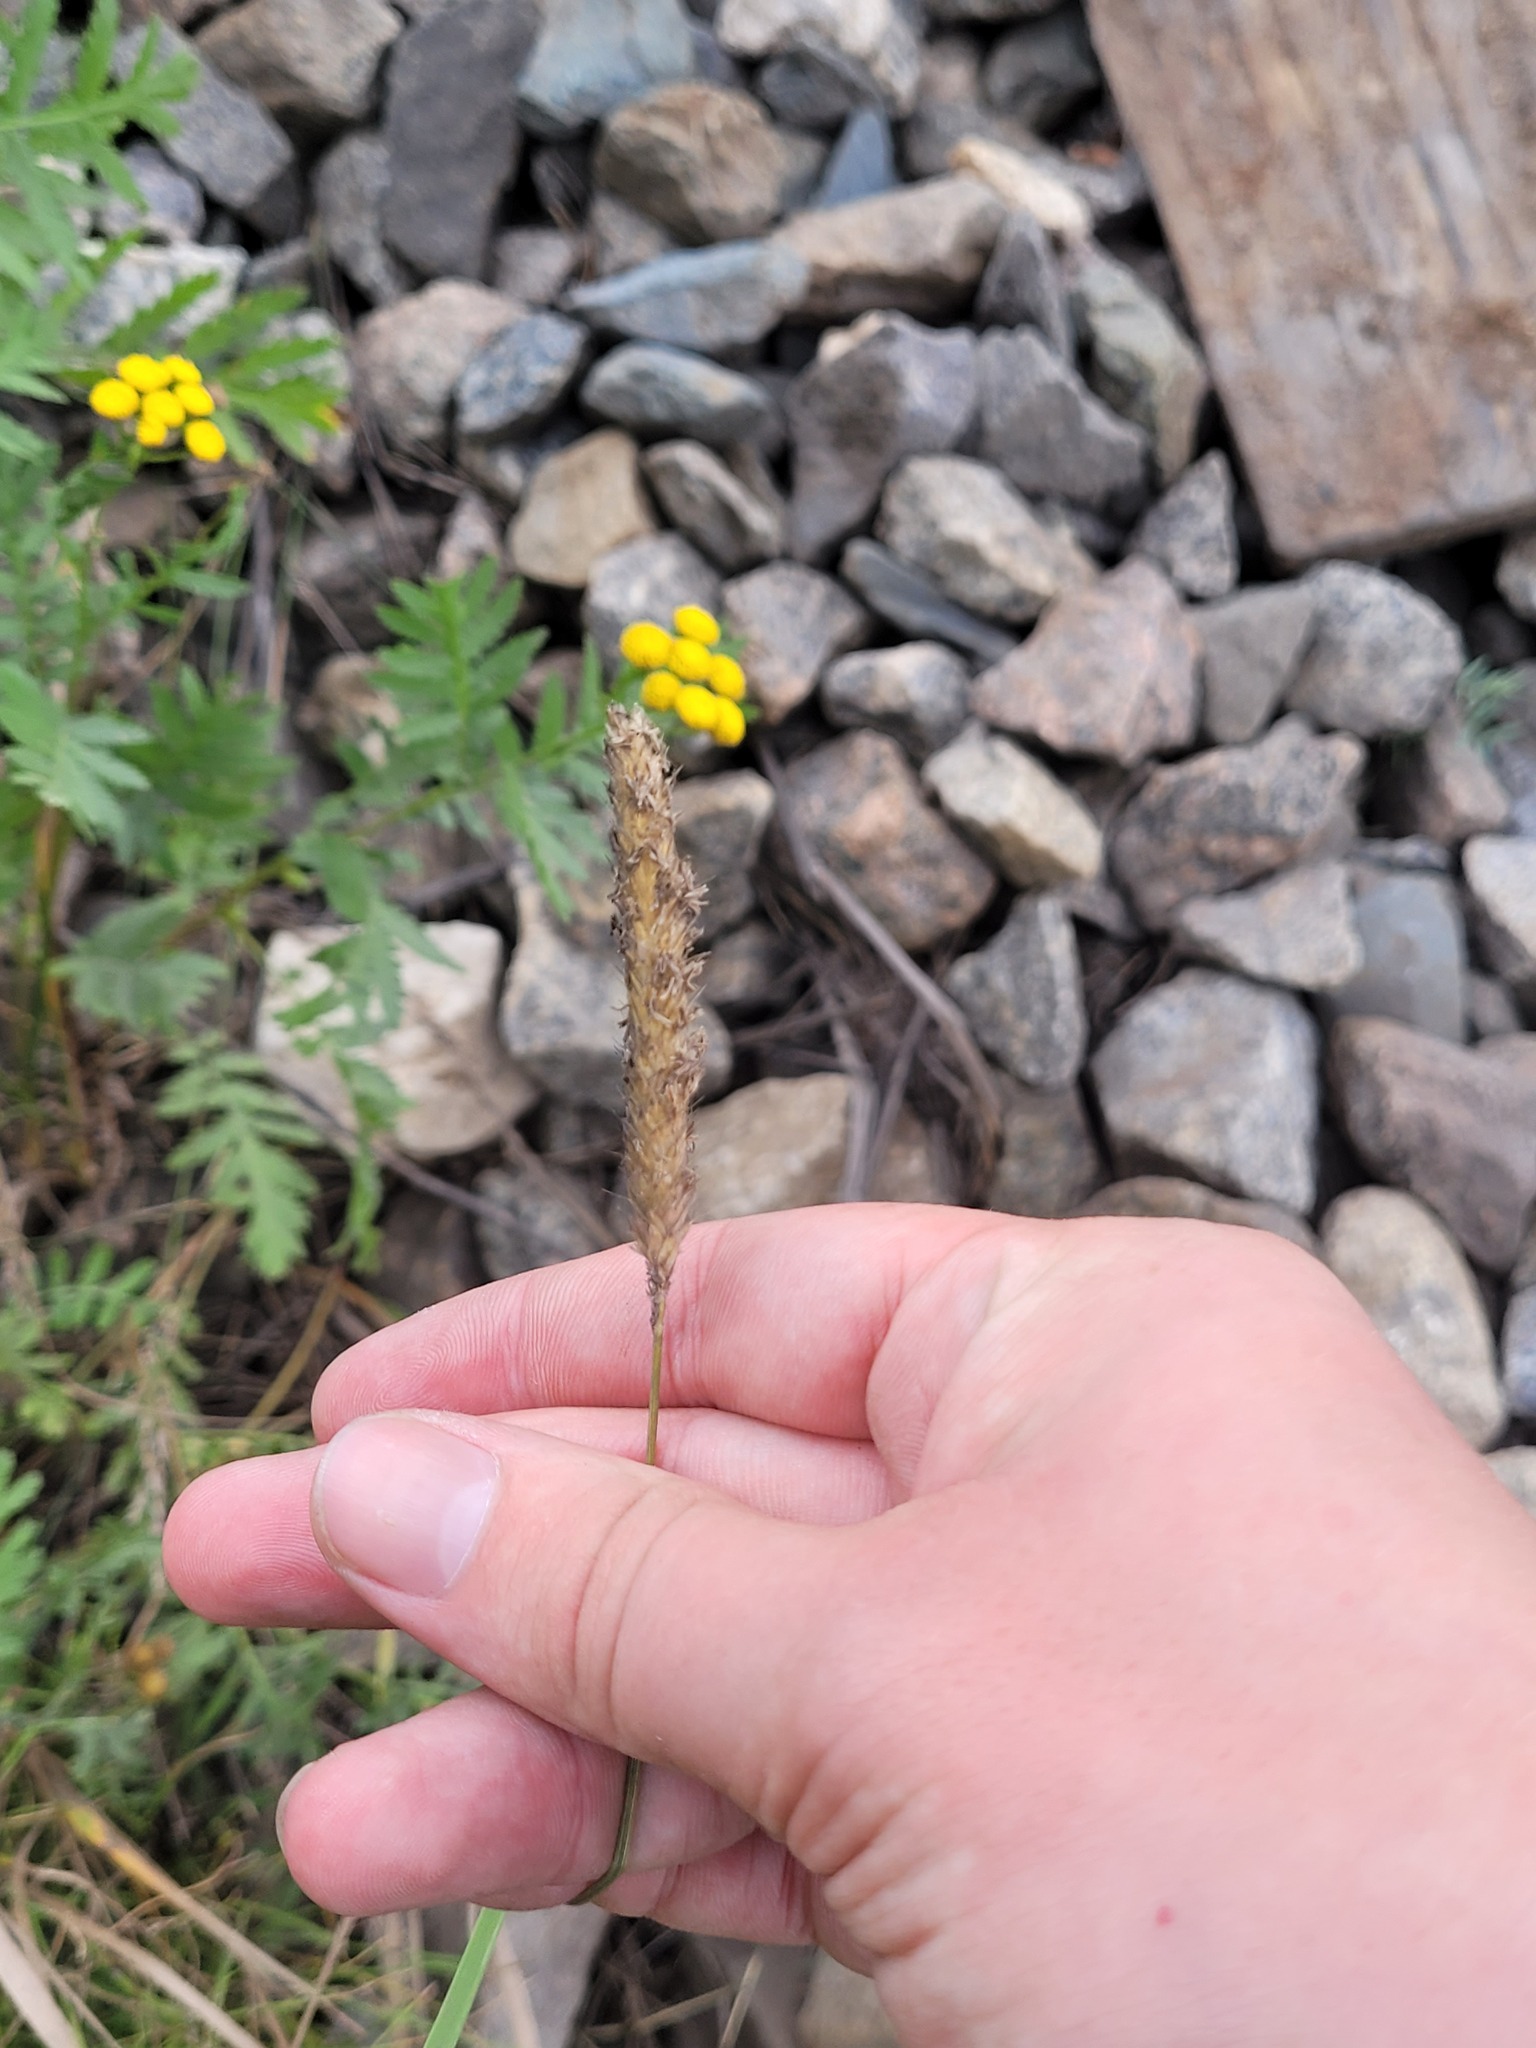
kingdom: Plantae
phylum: Tracheophyta
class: Liliopsida
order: Poales
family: Poaceae
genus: Alopecurus
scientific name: Alopecurus pratensis
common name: Meadow foxtail
